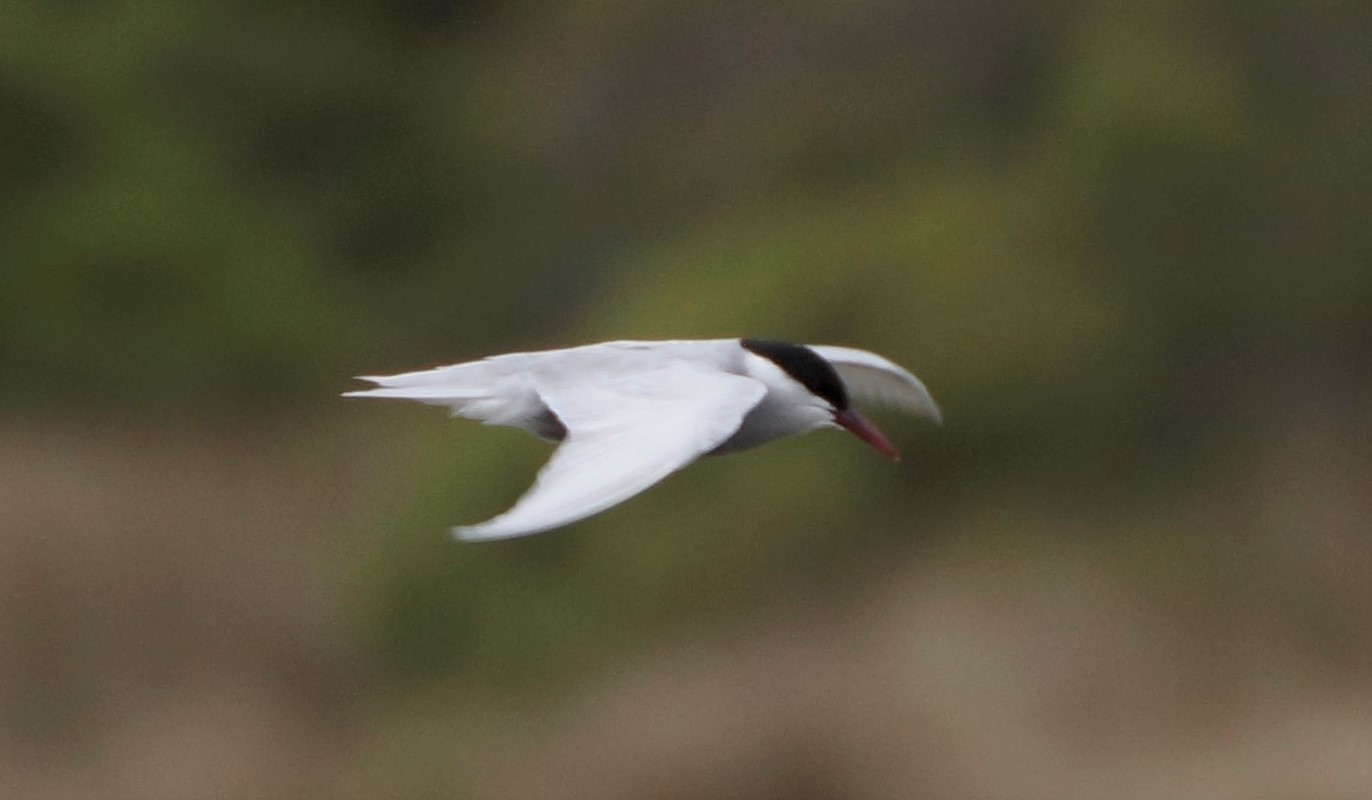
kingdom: Animalia
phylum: Chordata
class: Aves
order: Charadriiformes
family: Laridae
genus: Chlidonias
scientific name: Chlidonias hybrida
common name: Whiskered tern
